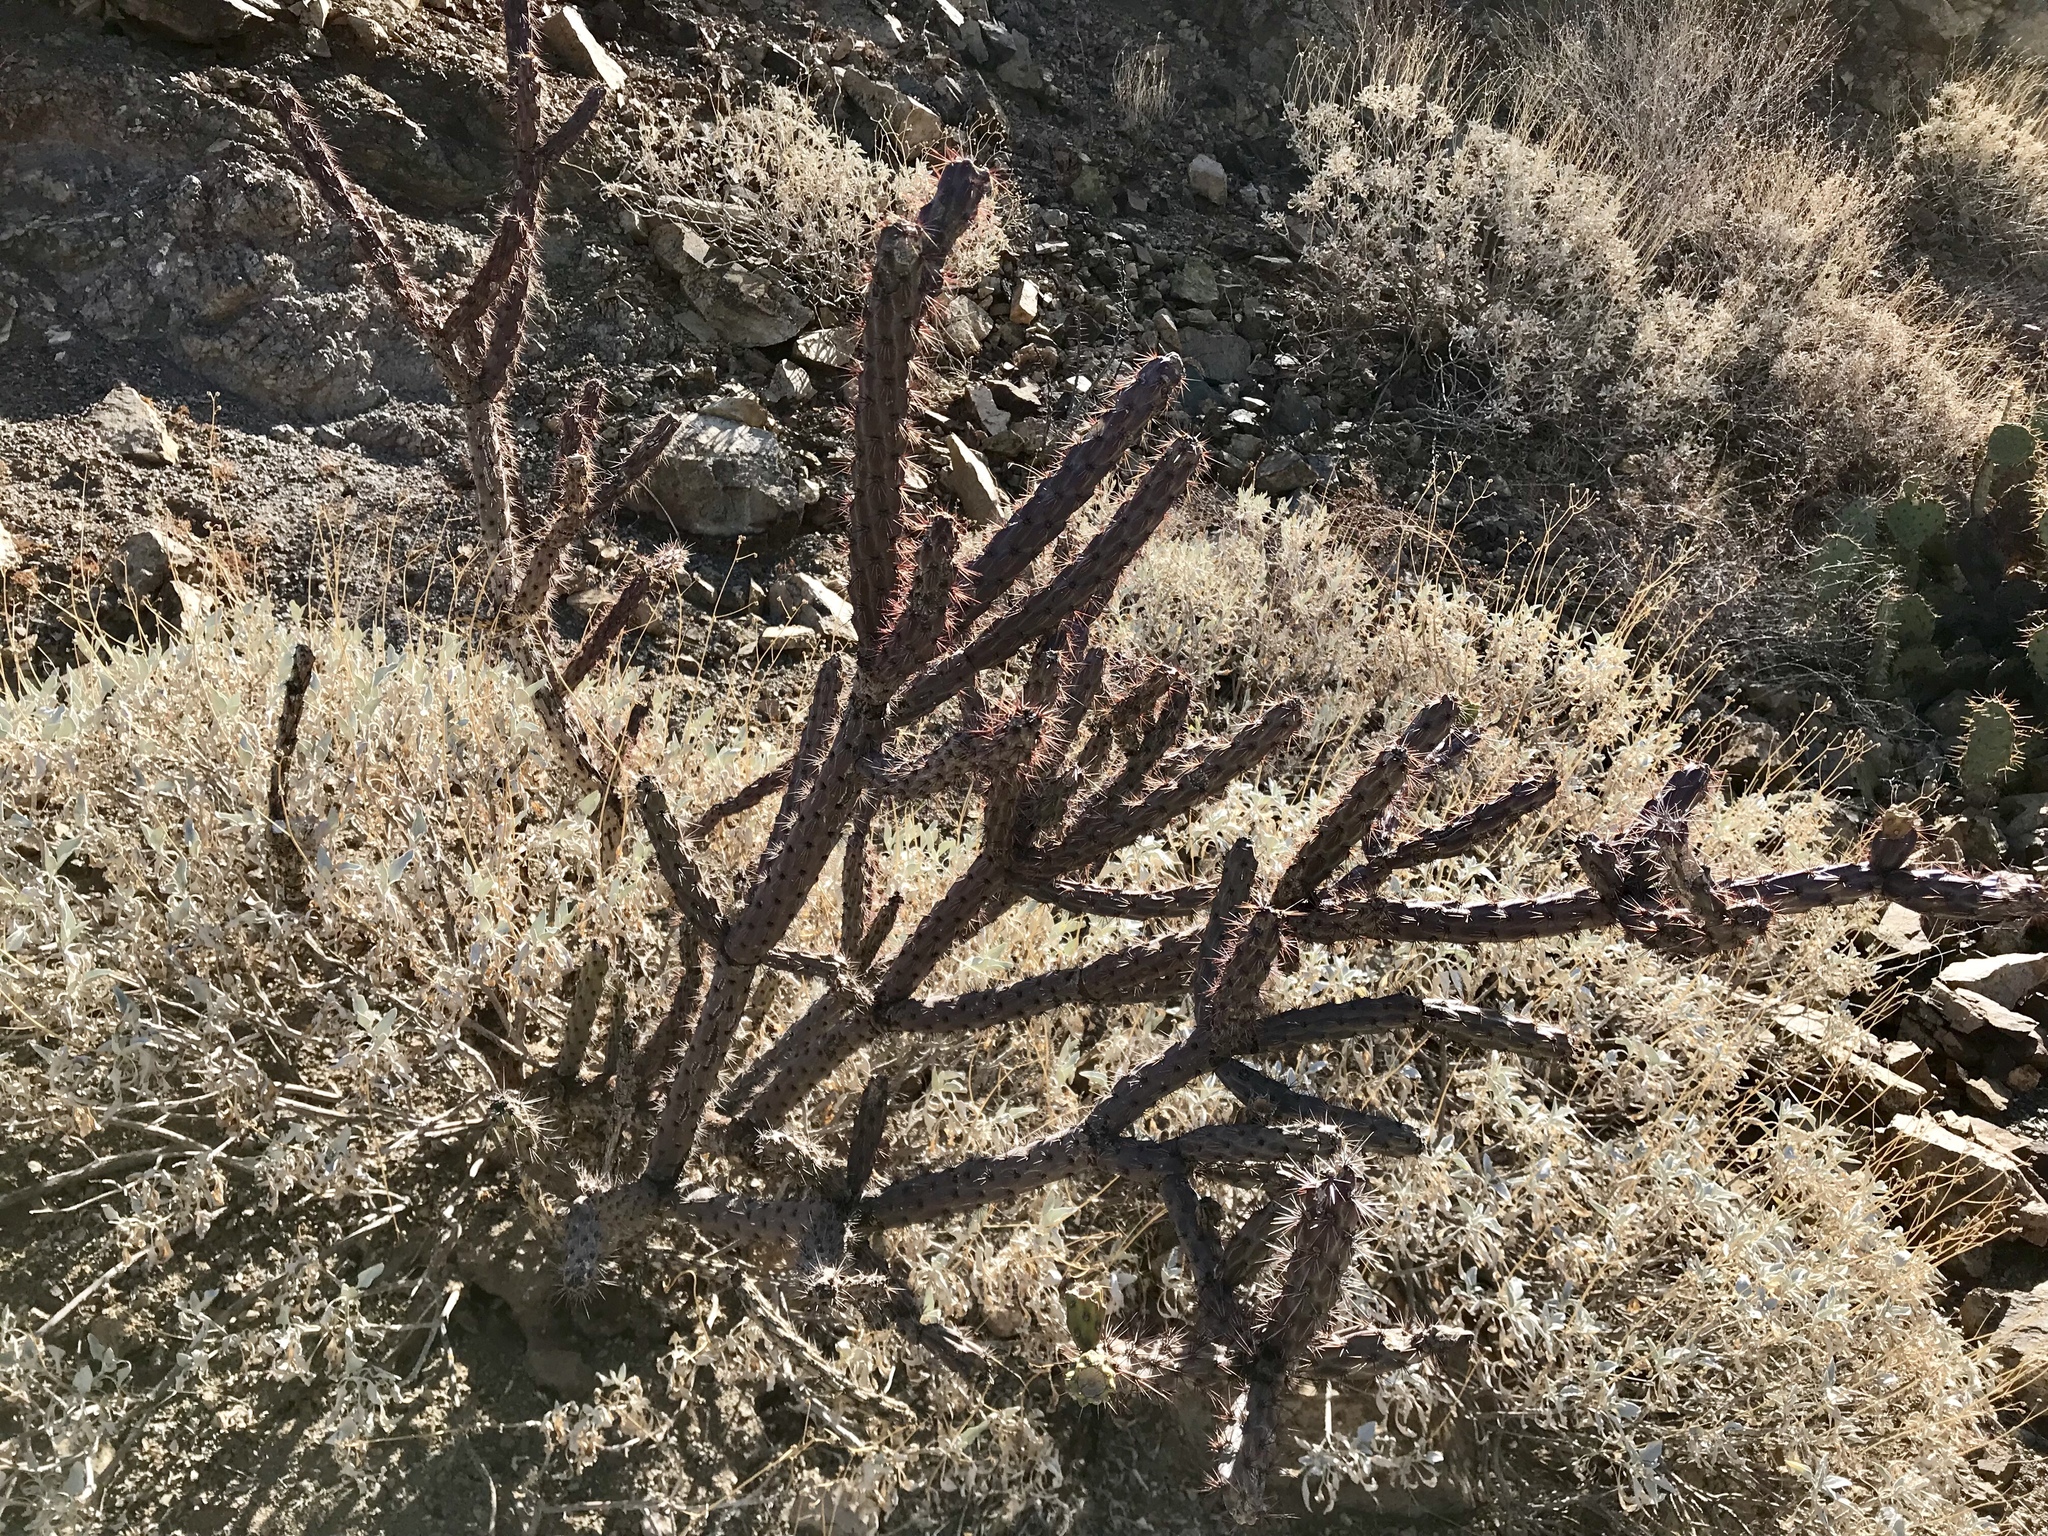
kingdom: Plantae
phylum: Tracheophyta
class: Magnoliopsida
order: Caryophyllales
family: Cactaceae
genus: Cylindropuntia
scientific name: Cylindropuntia acanthocarpa
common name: Buckhorn cholla
